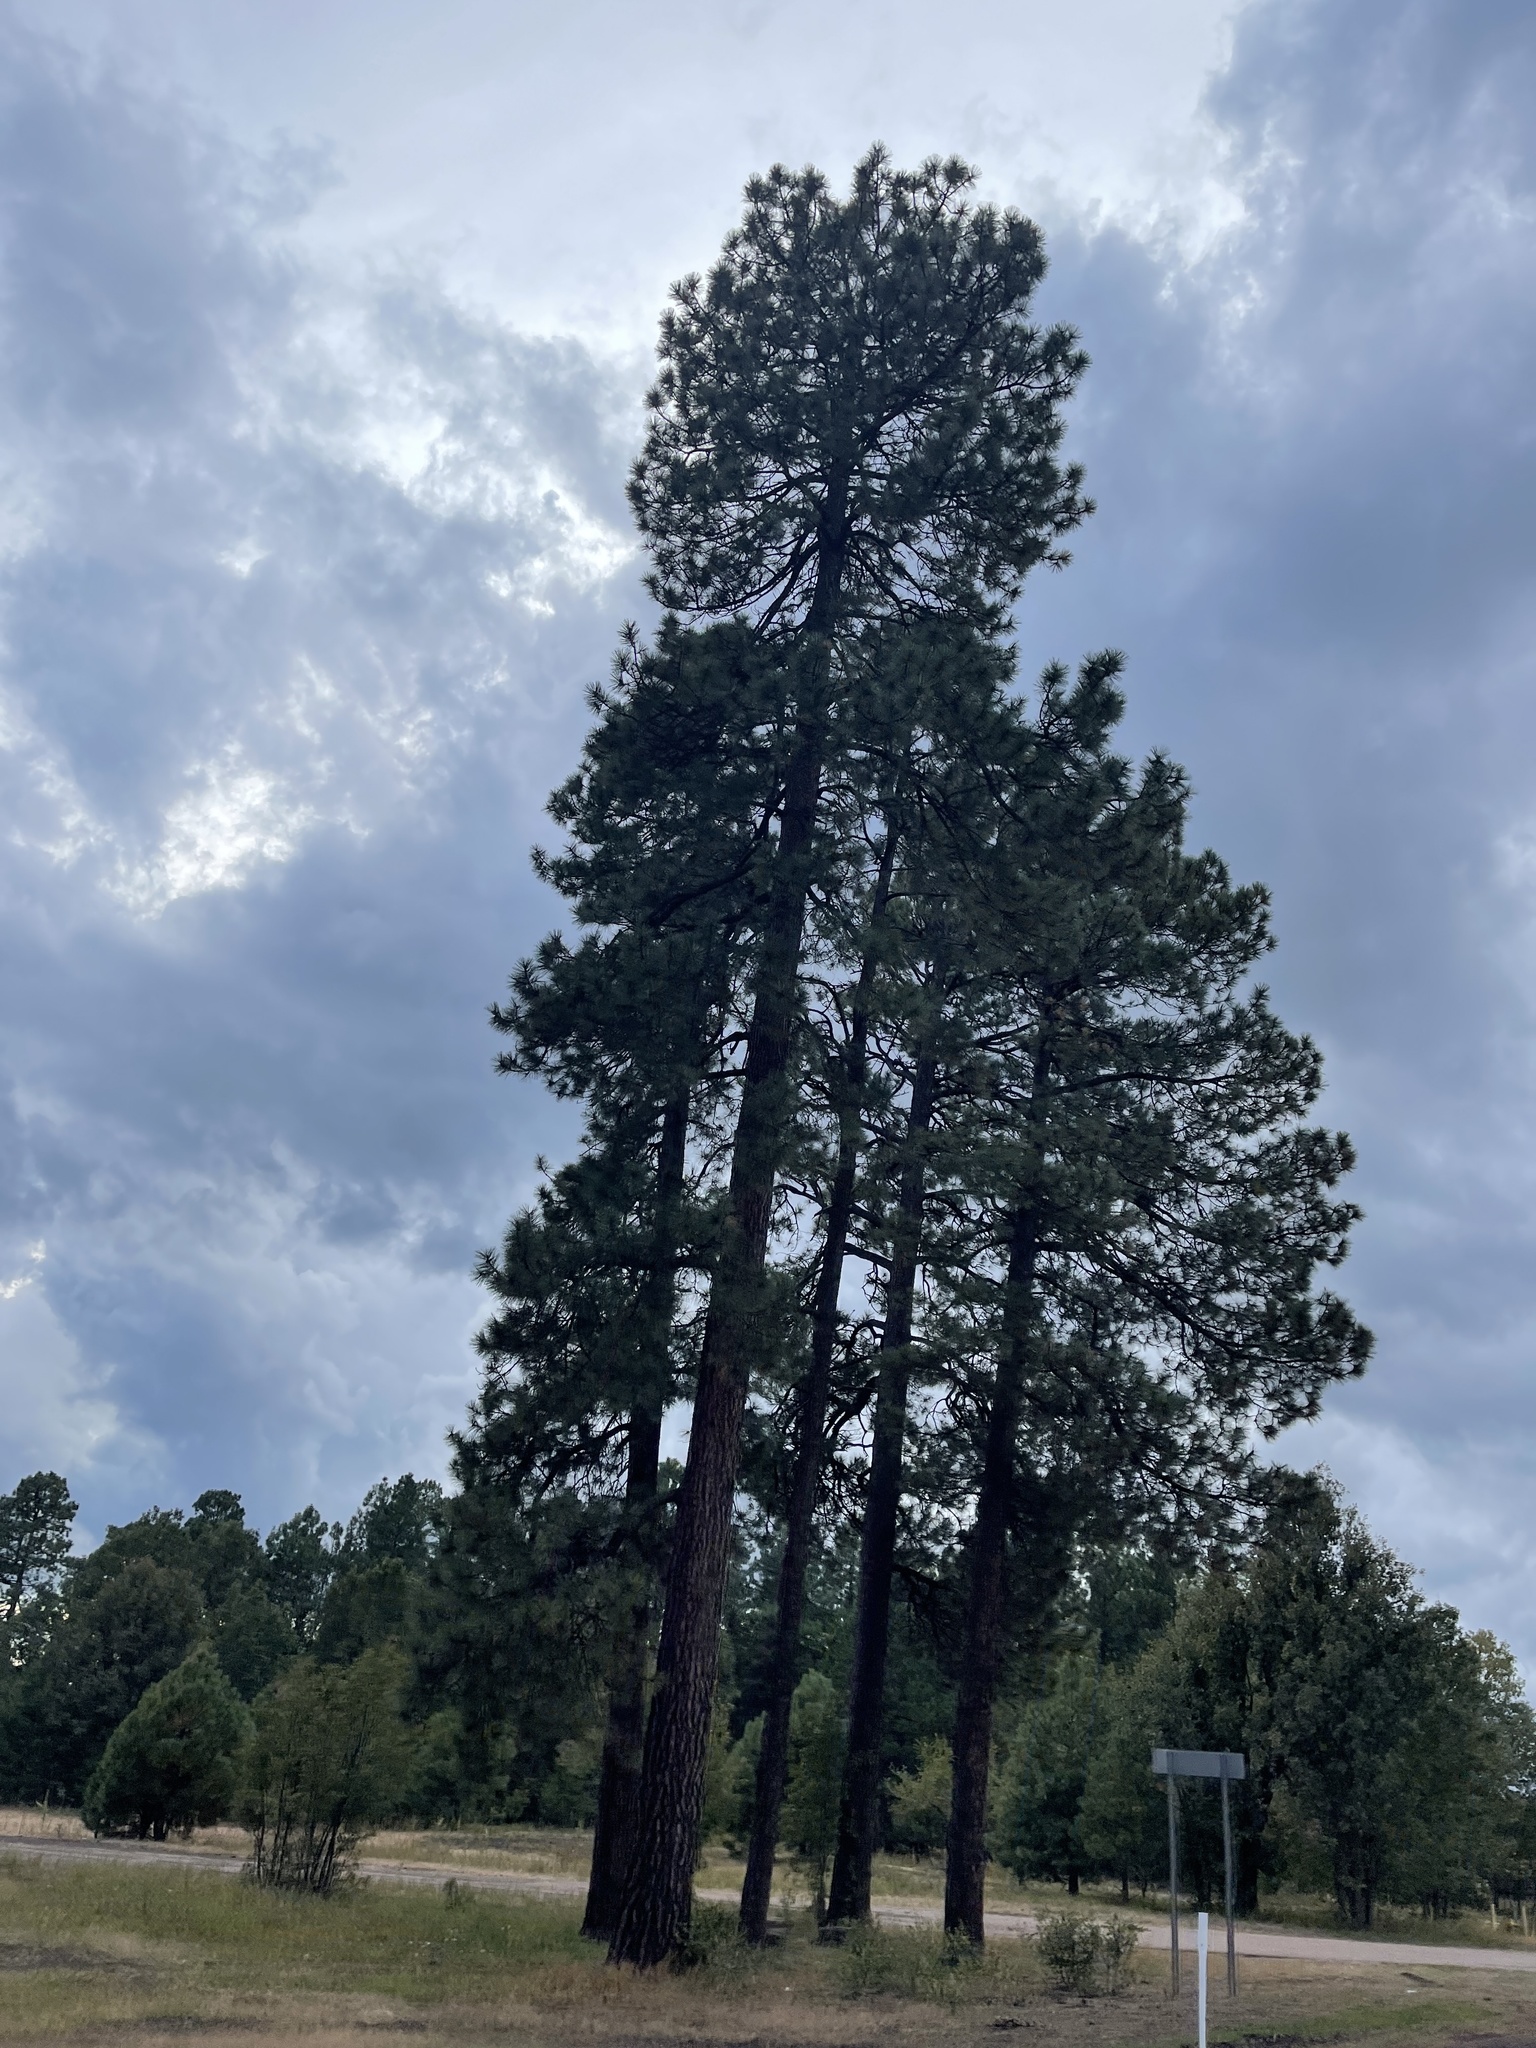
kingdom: Plantae
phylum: Tracheophyta
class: Pinopsida
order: Pinales
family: Pinaceae
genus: Pinus
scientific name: Pinus ponderosa
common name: Western yellow-pine
